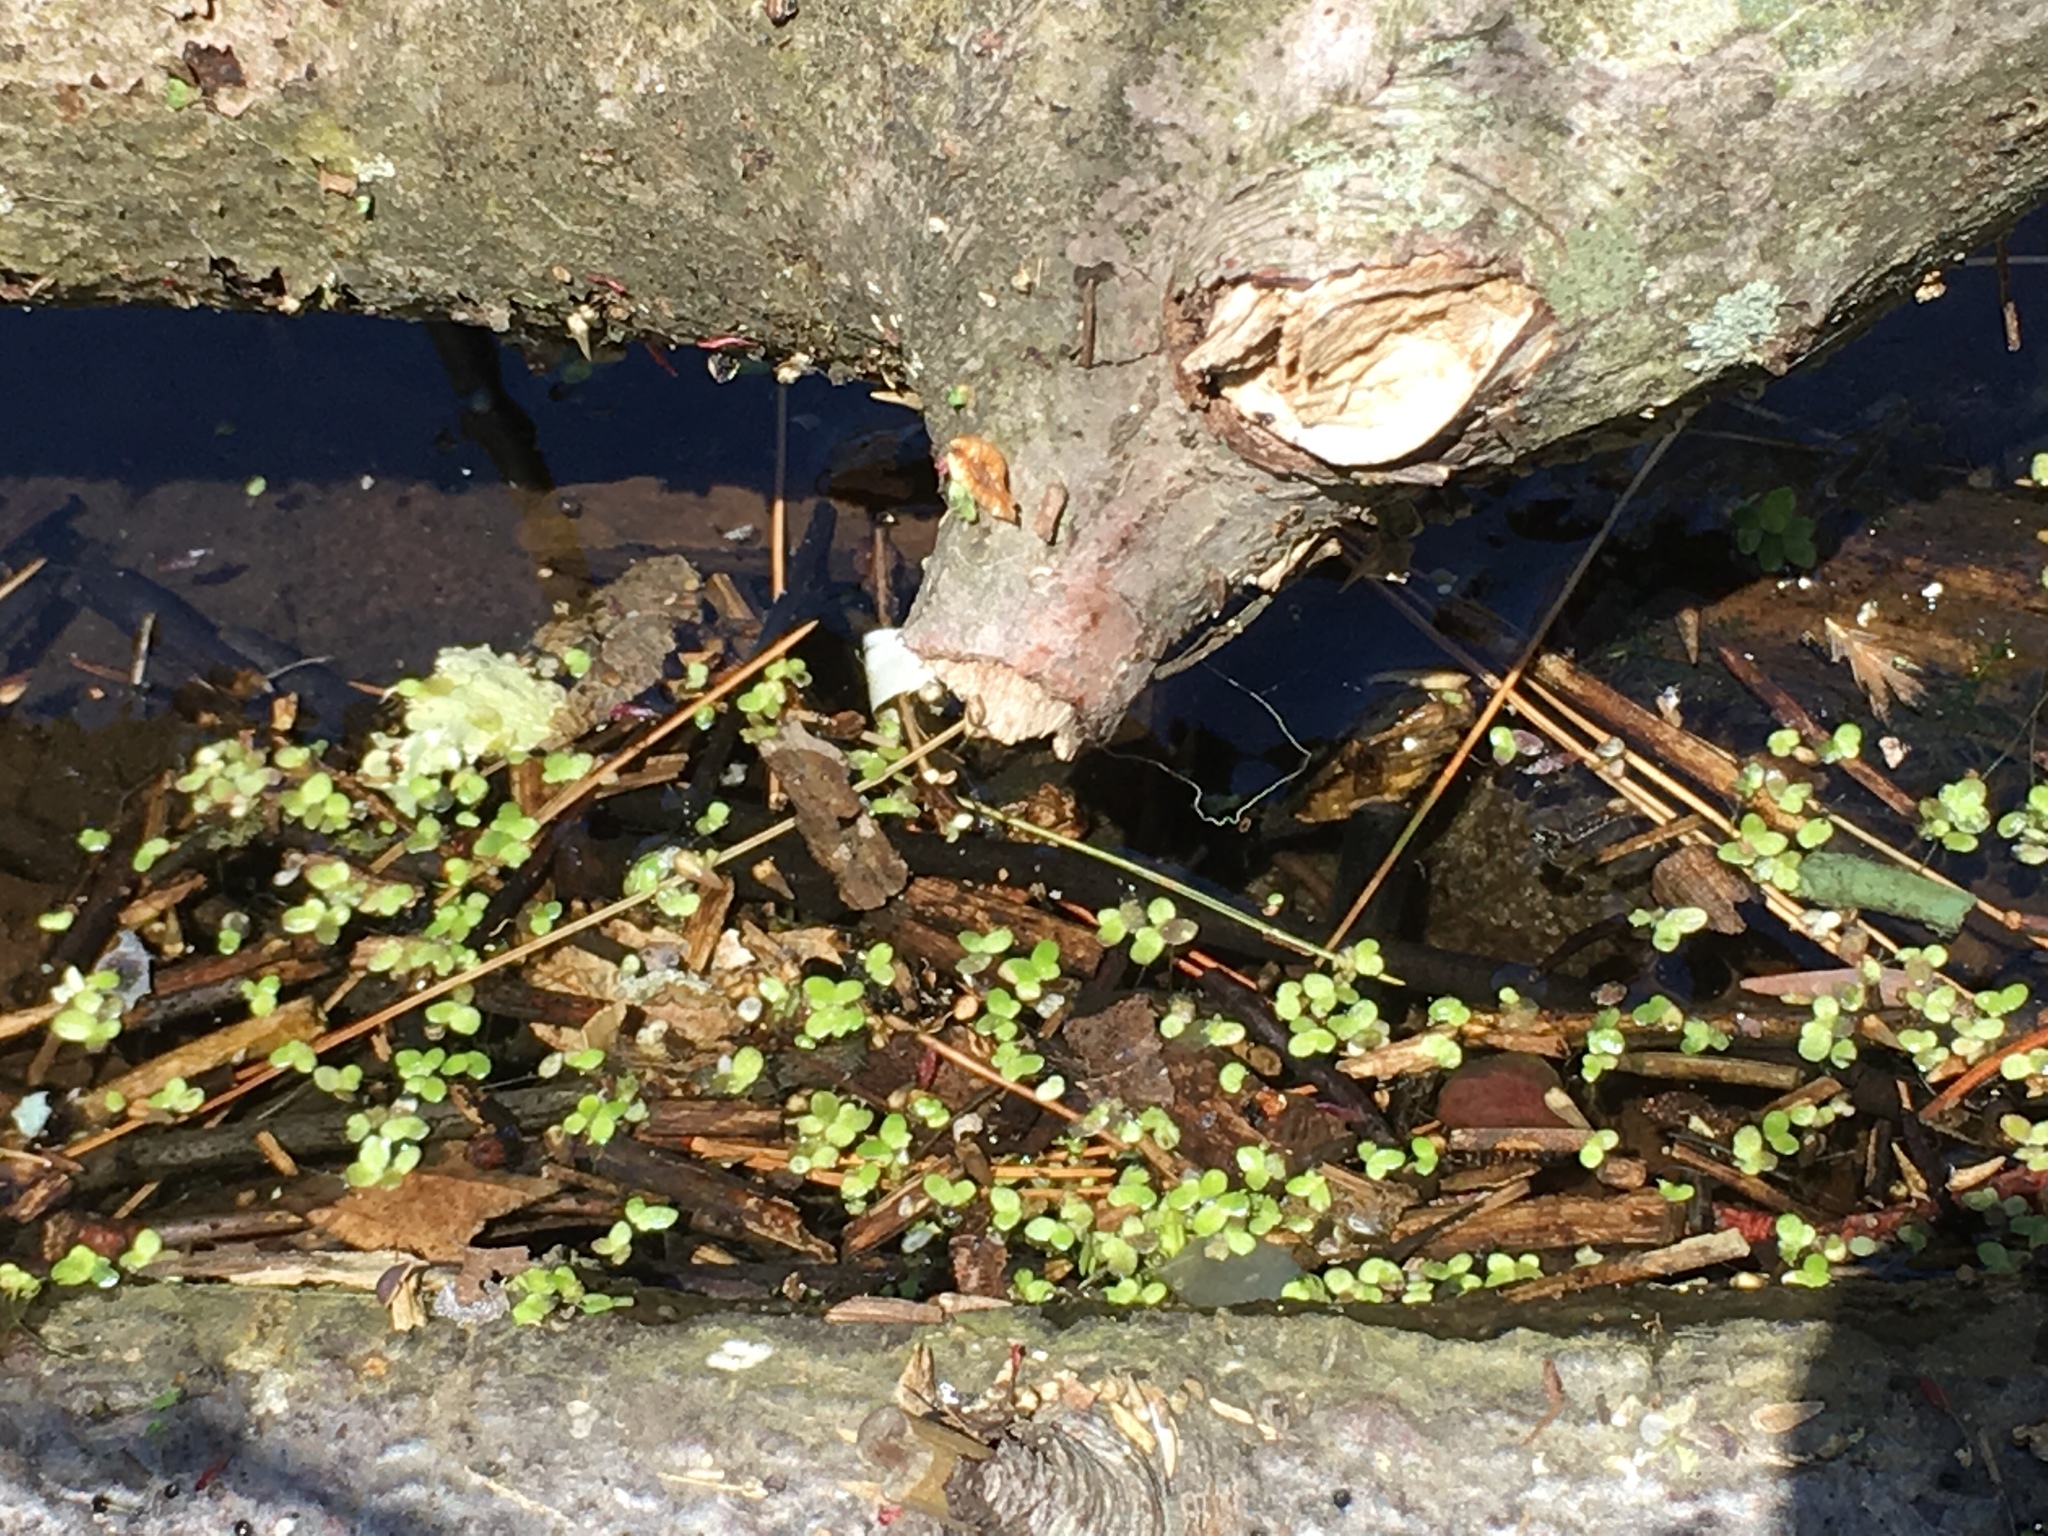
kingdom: Plantae
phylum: Tracheophyta
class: Liliopsida
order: Alismatales
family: Araceae
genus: Lemna
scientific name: Lemna minor
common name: Common duckweed
